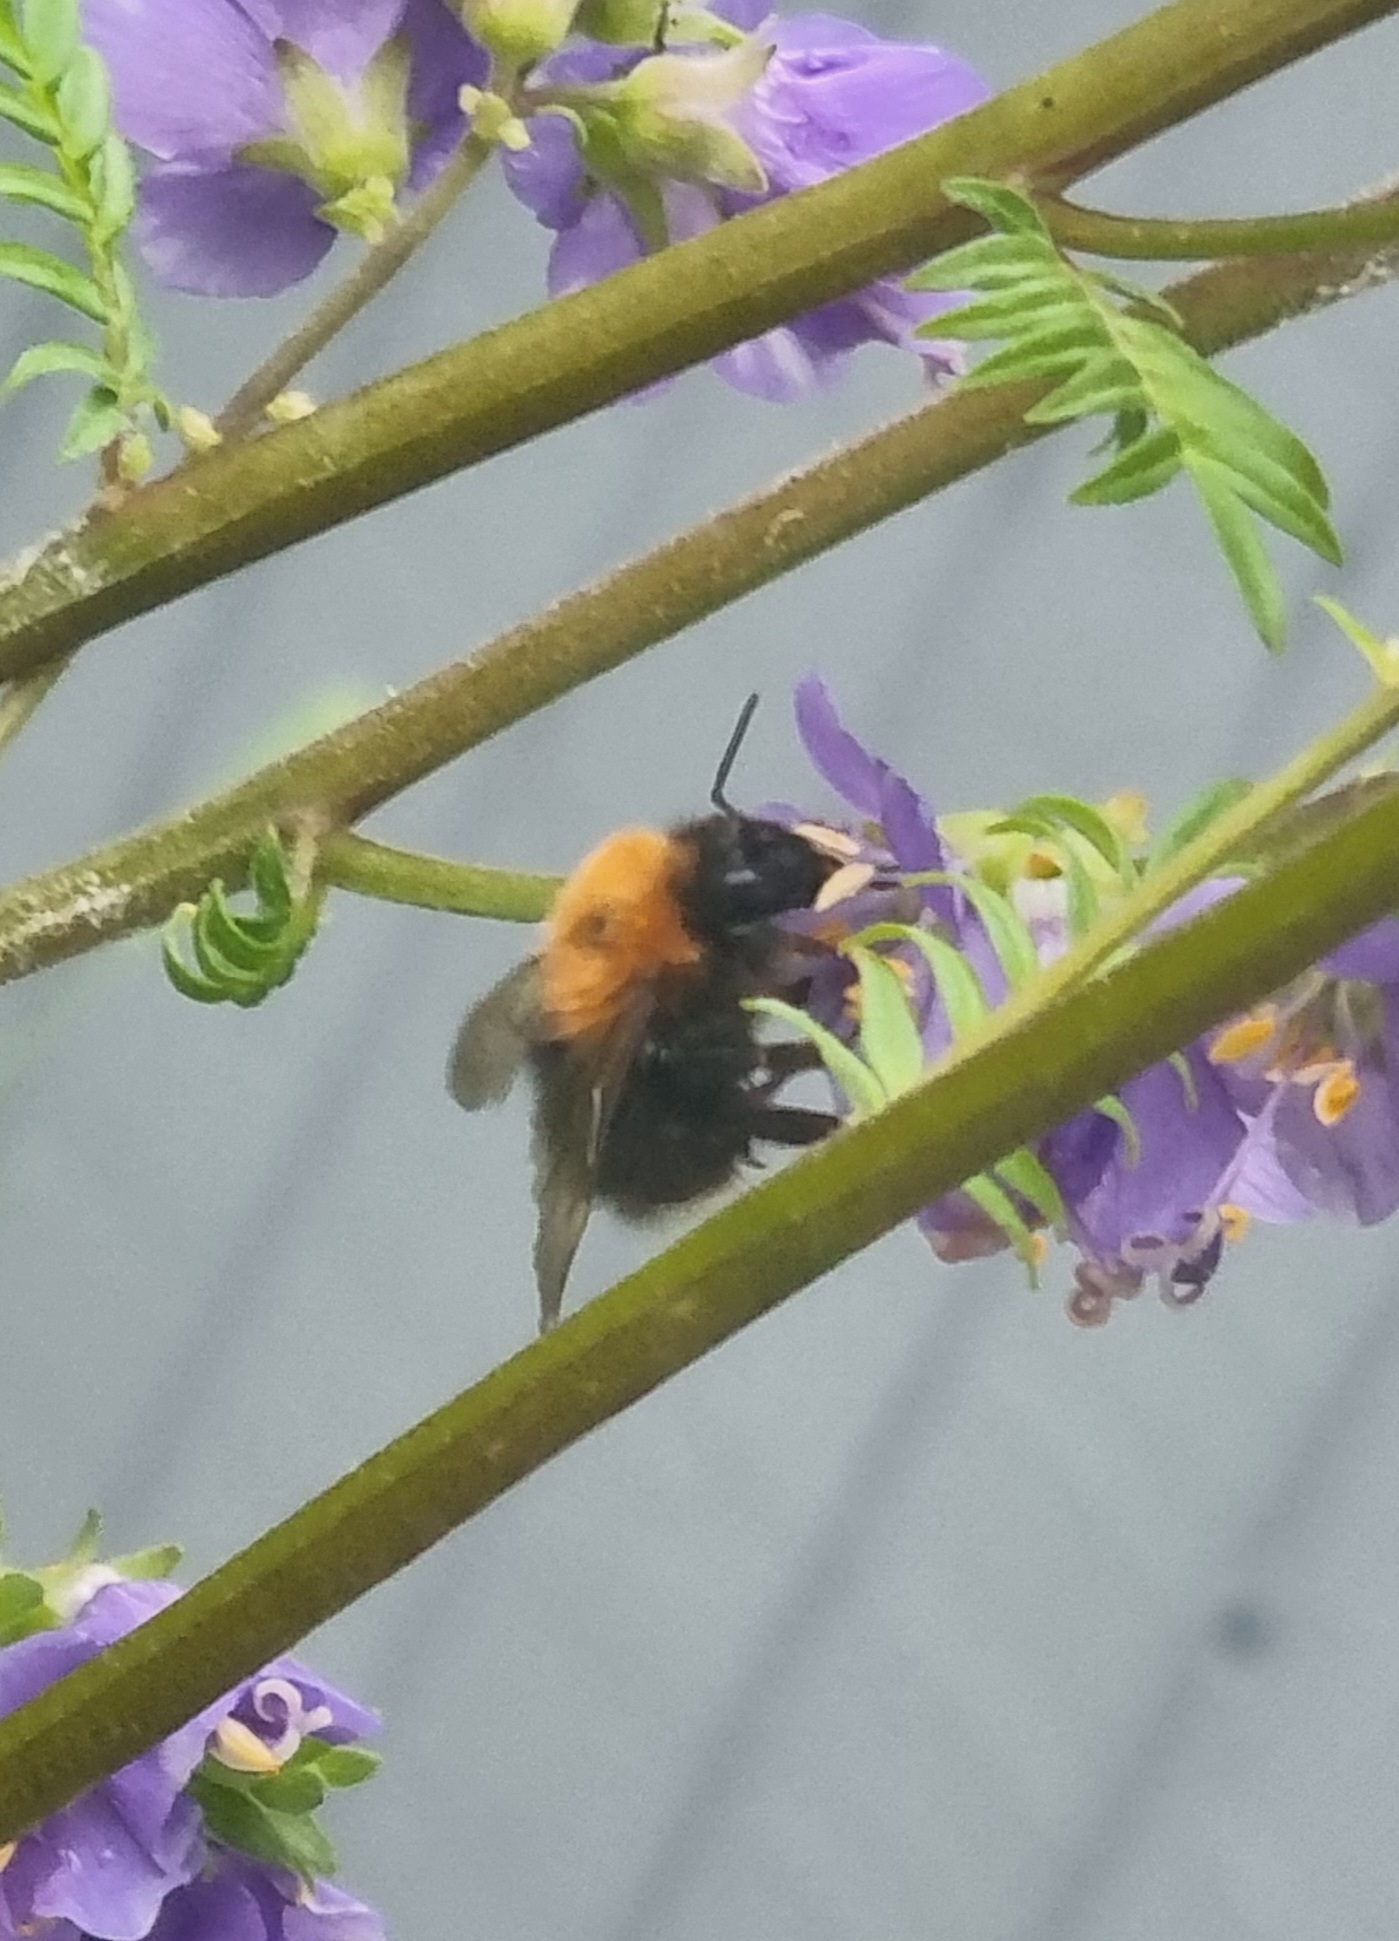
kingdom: Animalia
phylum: Arthropoda
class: Insecta
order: Hymenoptera
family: Apidae
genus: Bombus
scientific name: Bombus hypnorum
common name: New garden bumblebee
